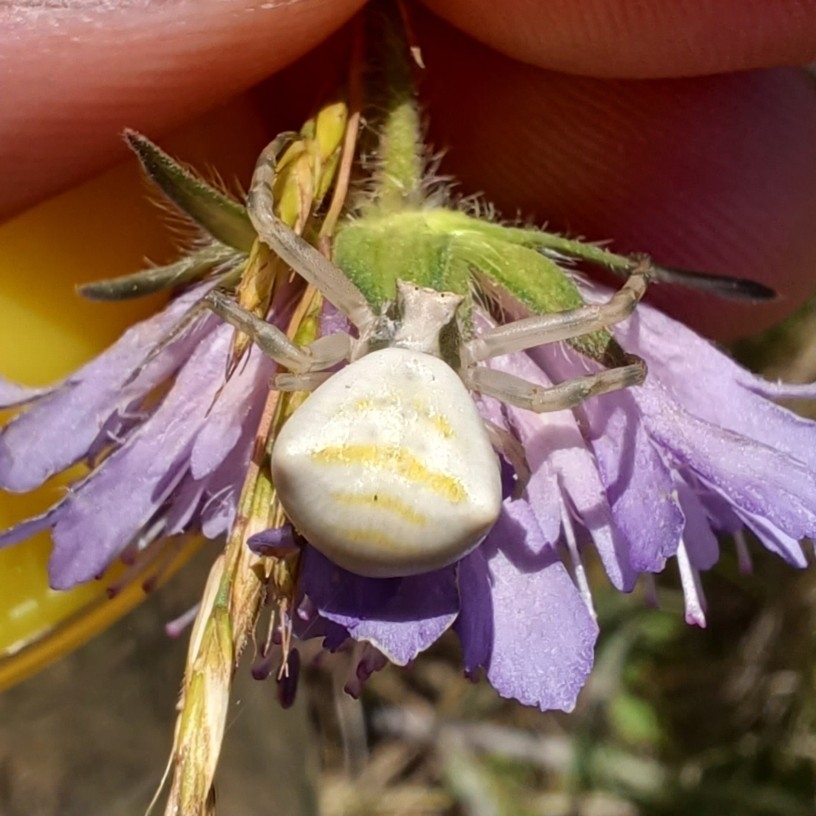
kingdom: Animalia
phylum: Arthropoda
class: Arachnida
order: Araneae
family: Thomisidae
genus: Thomisus
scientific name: Thomisus onustus
